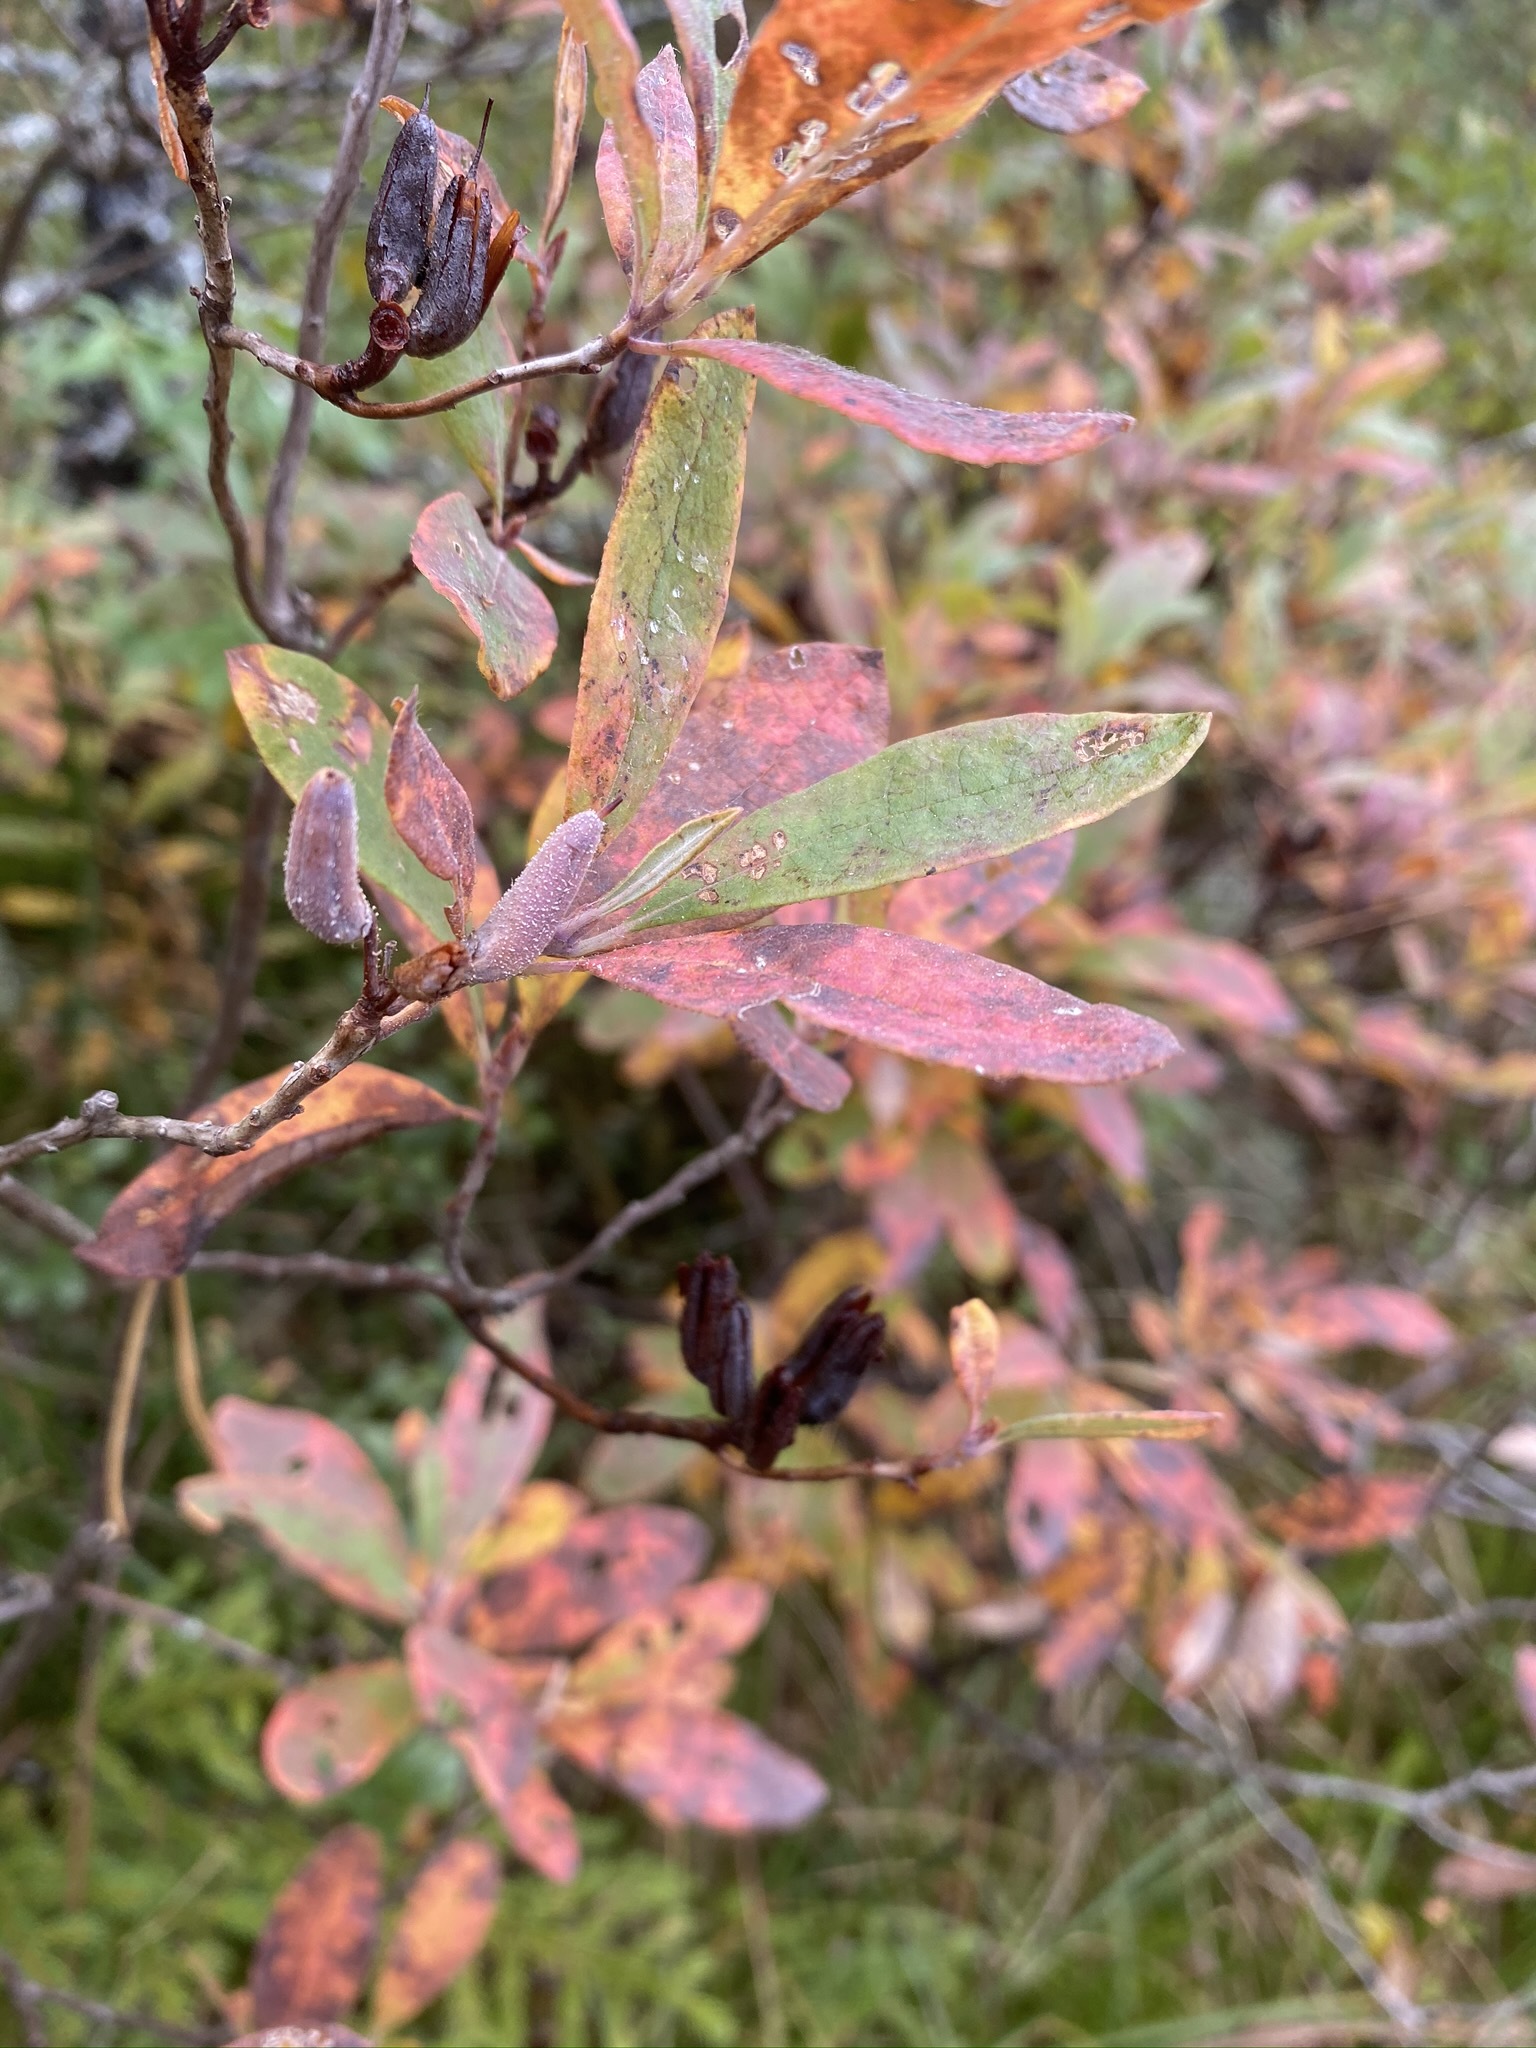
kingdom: Plantae
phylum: Tracheophyta
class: Magnoliopsida
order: Ericales
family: Ericaceae
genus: Rhododendron
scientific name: Rhododendron canadense
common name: Rhodora
